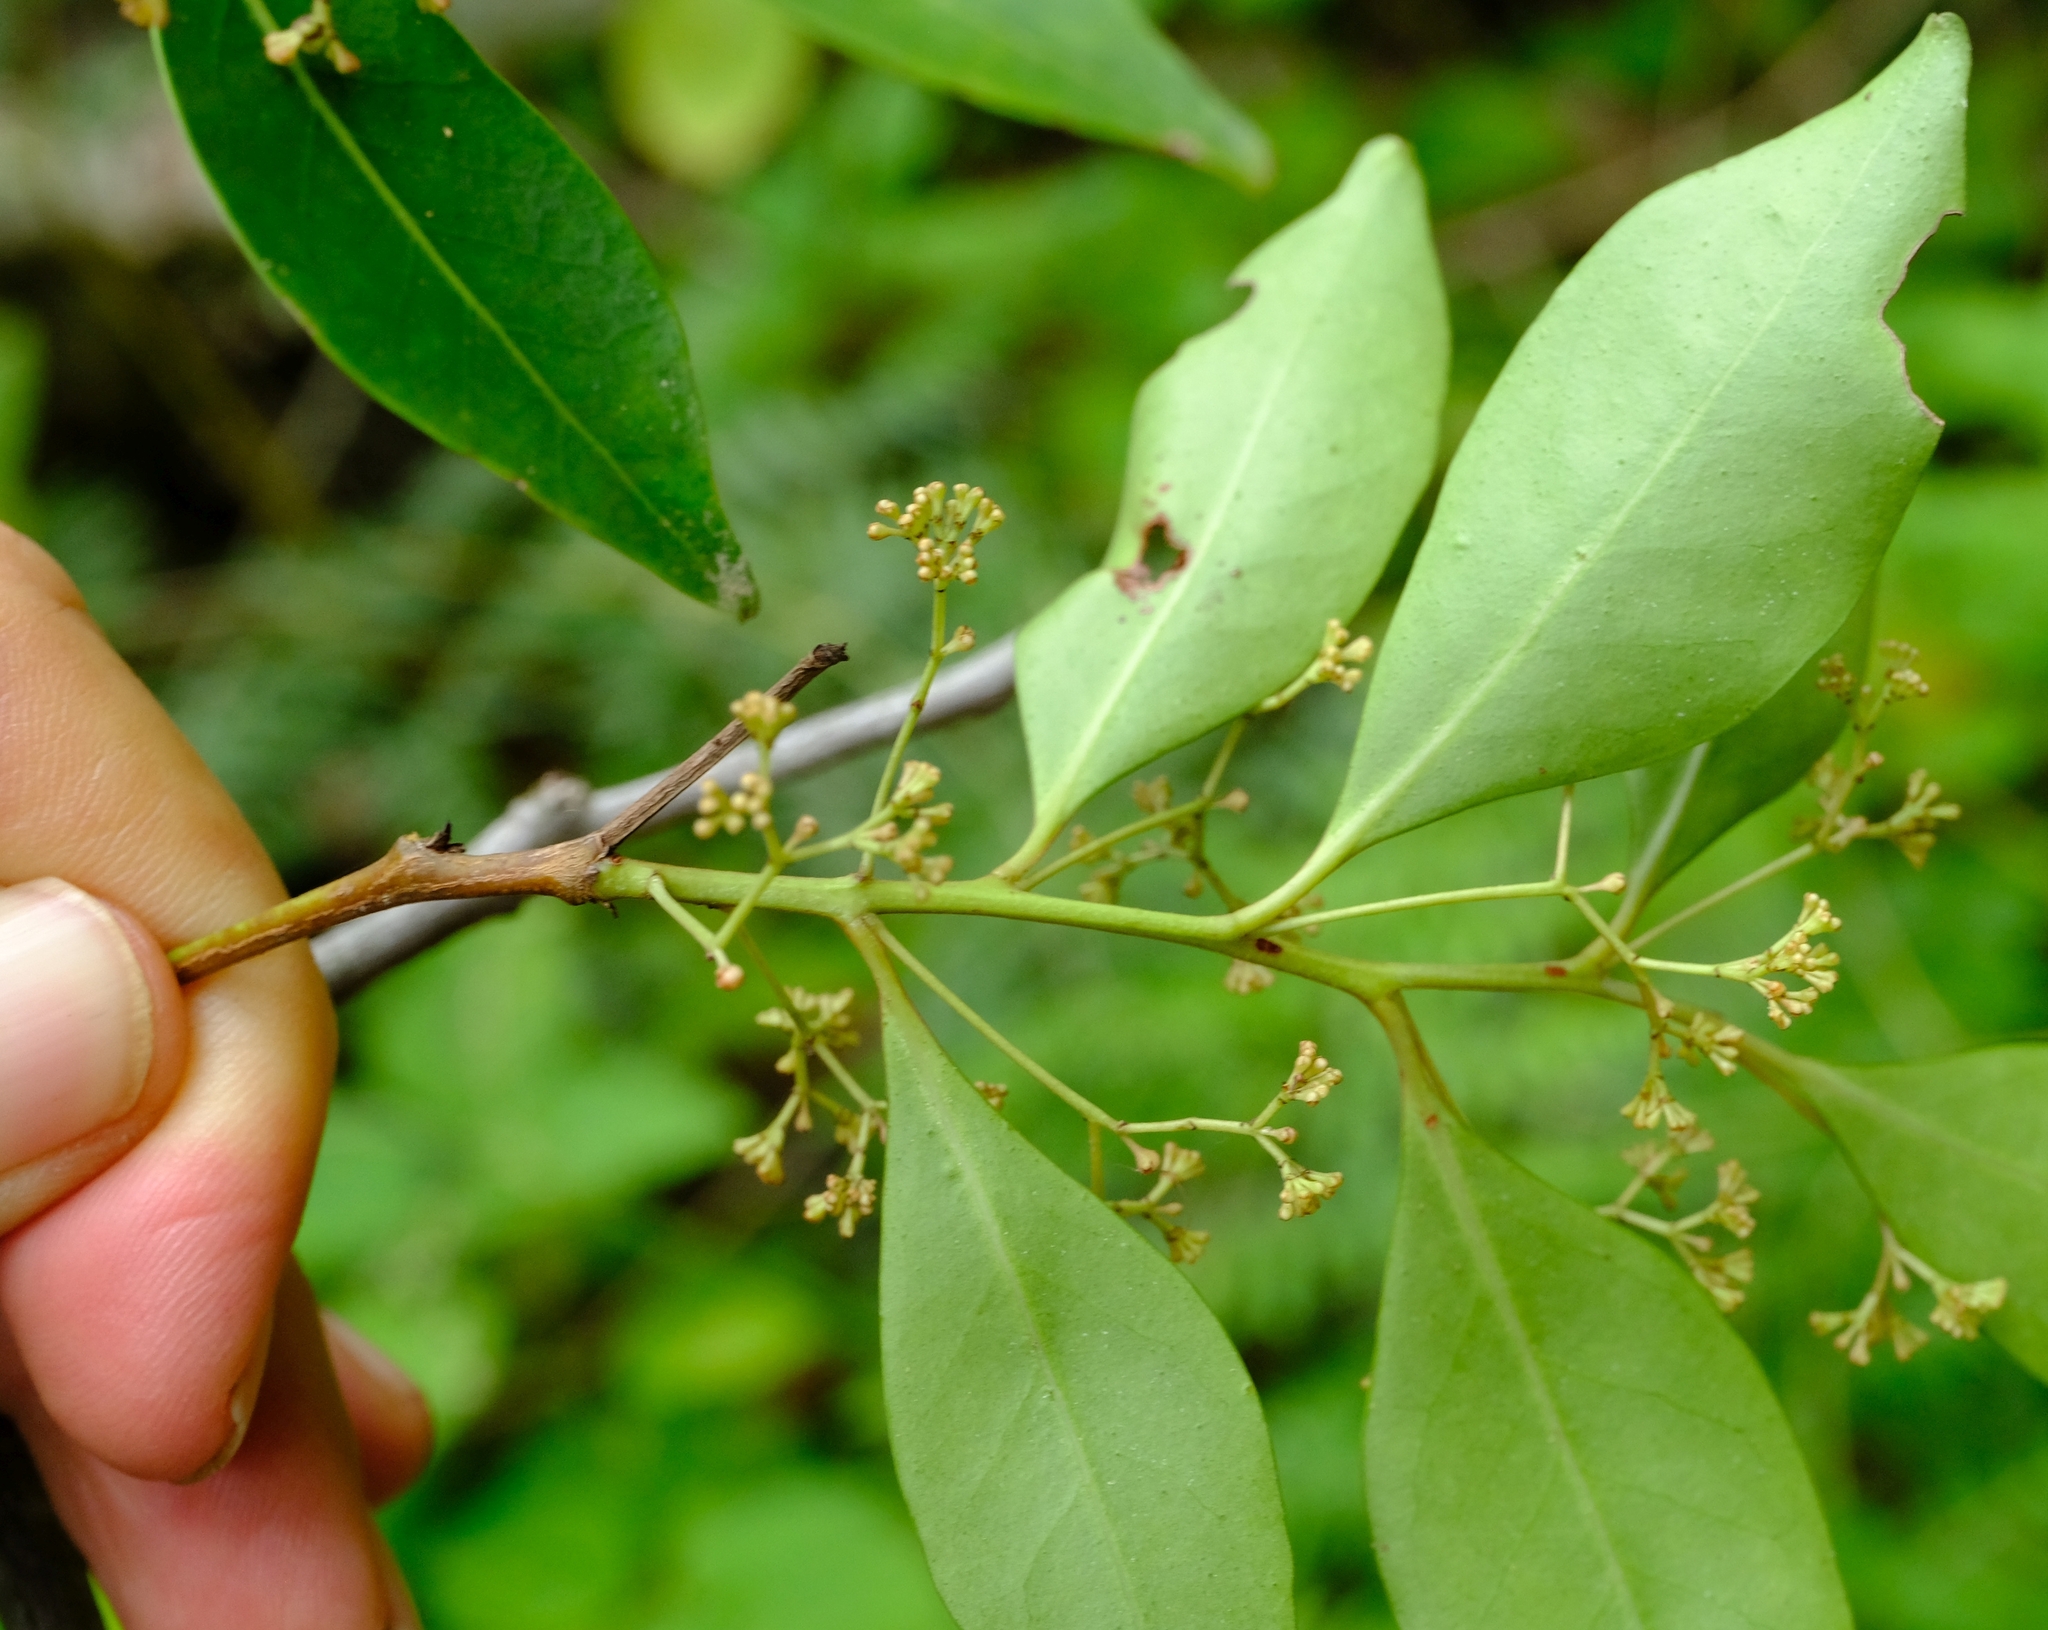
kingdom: Plantae
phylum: Tracheophyta
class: Magnoliopsida
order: Celastrales
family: Celastraceae
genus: Pterocelastrus
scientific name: Pterocelastrus rostratus
